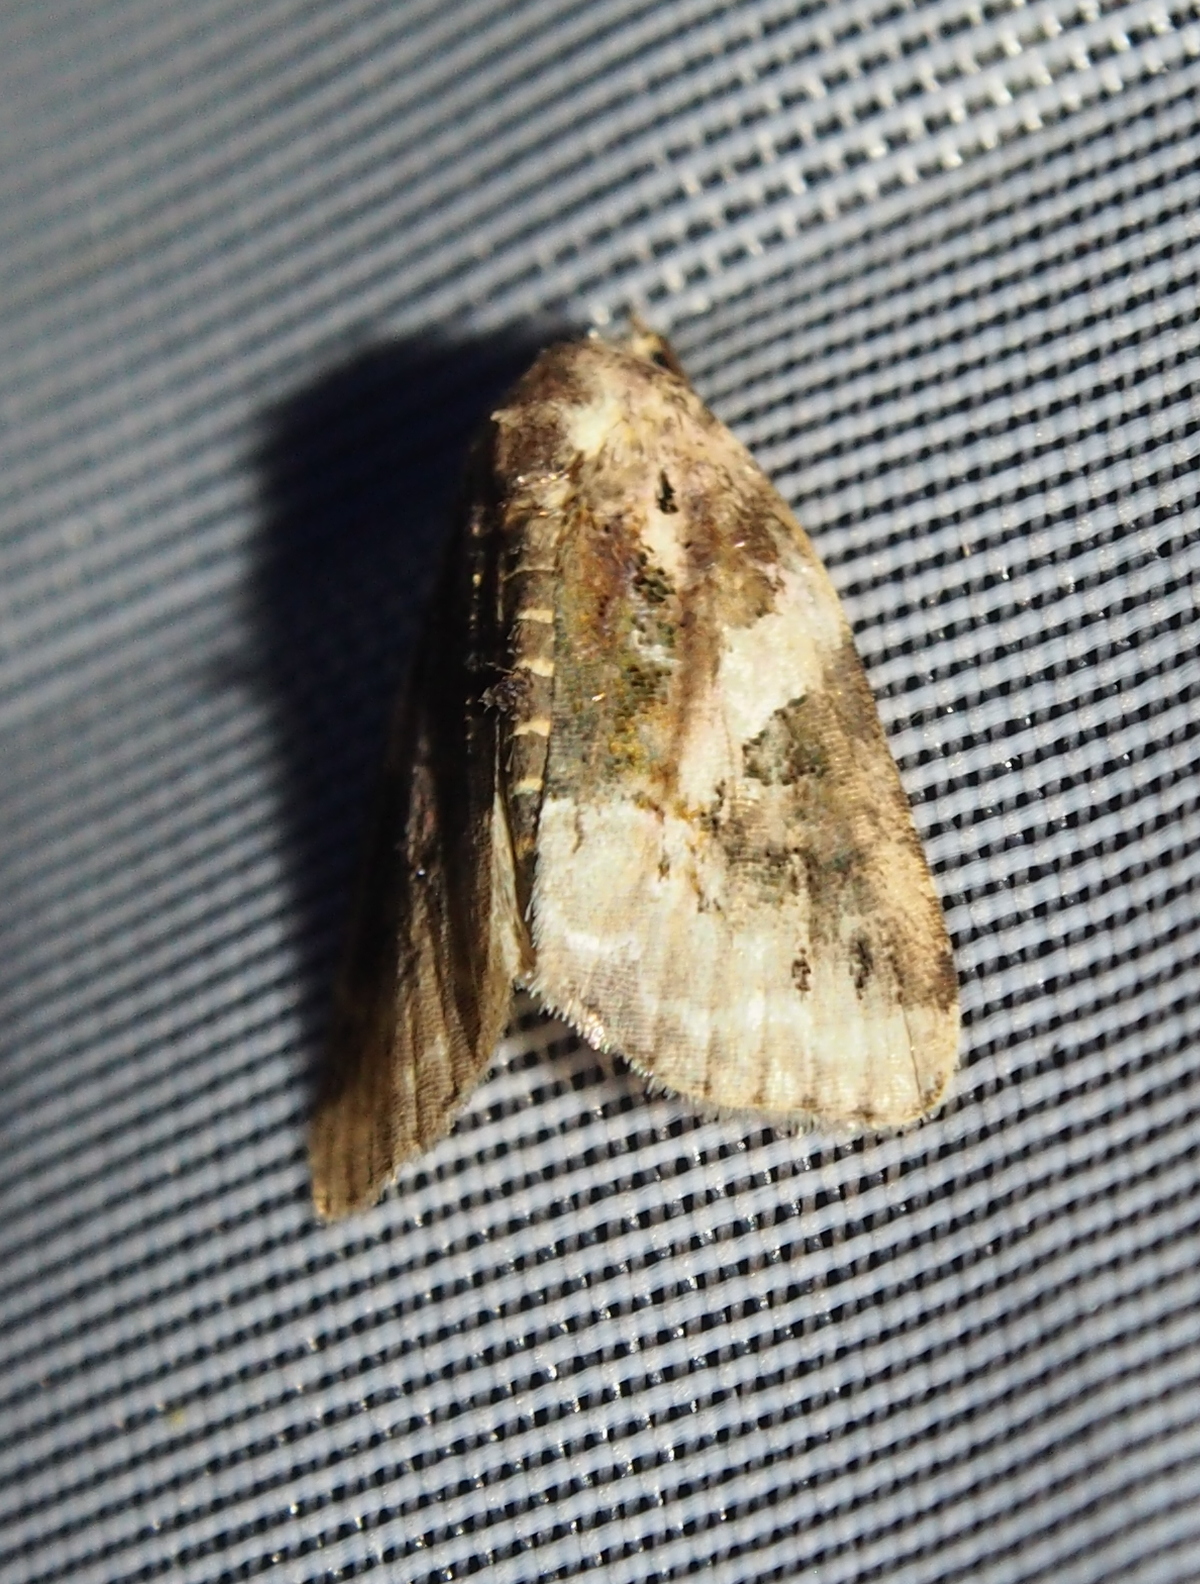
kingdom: Animalia
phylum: Arthropoda
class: Insecta
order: Lepidoptera
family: Noctuidae
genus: Pseudeustrotia
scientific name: Pseudeustrotia carneola
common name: Pink-barred lithacodia moth
